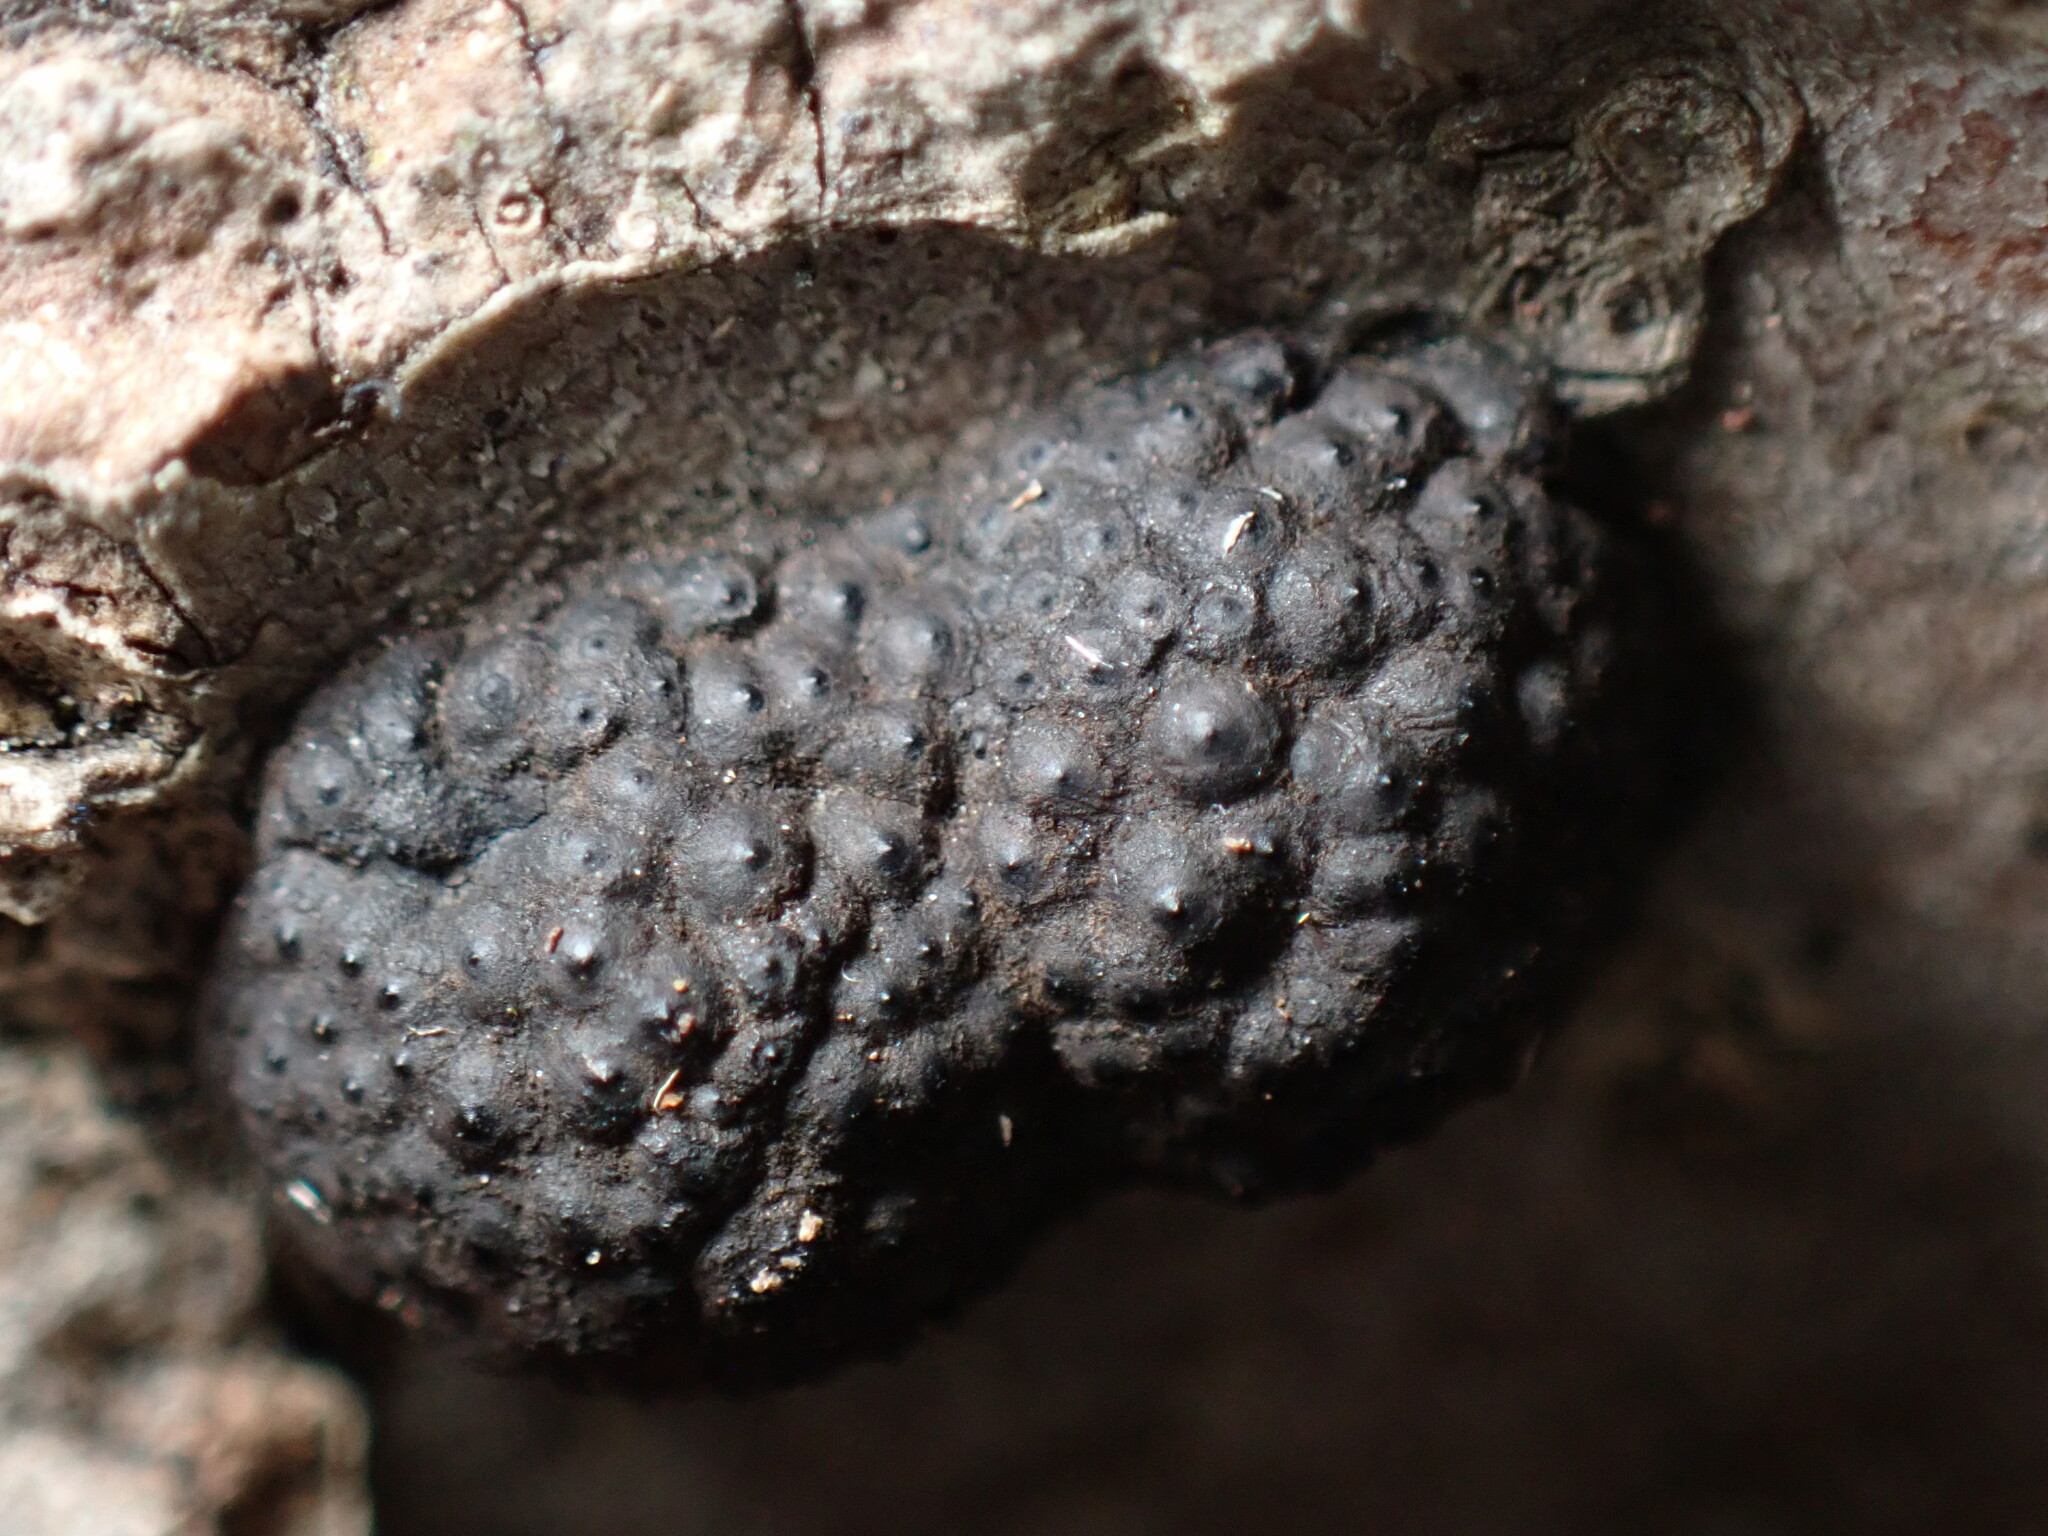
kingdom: Fungi
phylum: Ascomycota
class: Sordariomycetes
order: Xylariales
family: Hypoxylaceae
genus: Annulohypoxylon
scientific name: Annulohypoxylon annulatum
